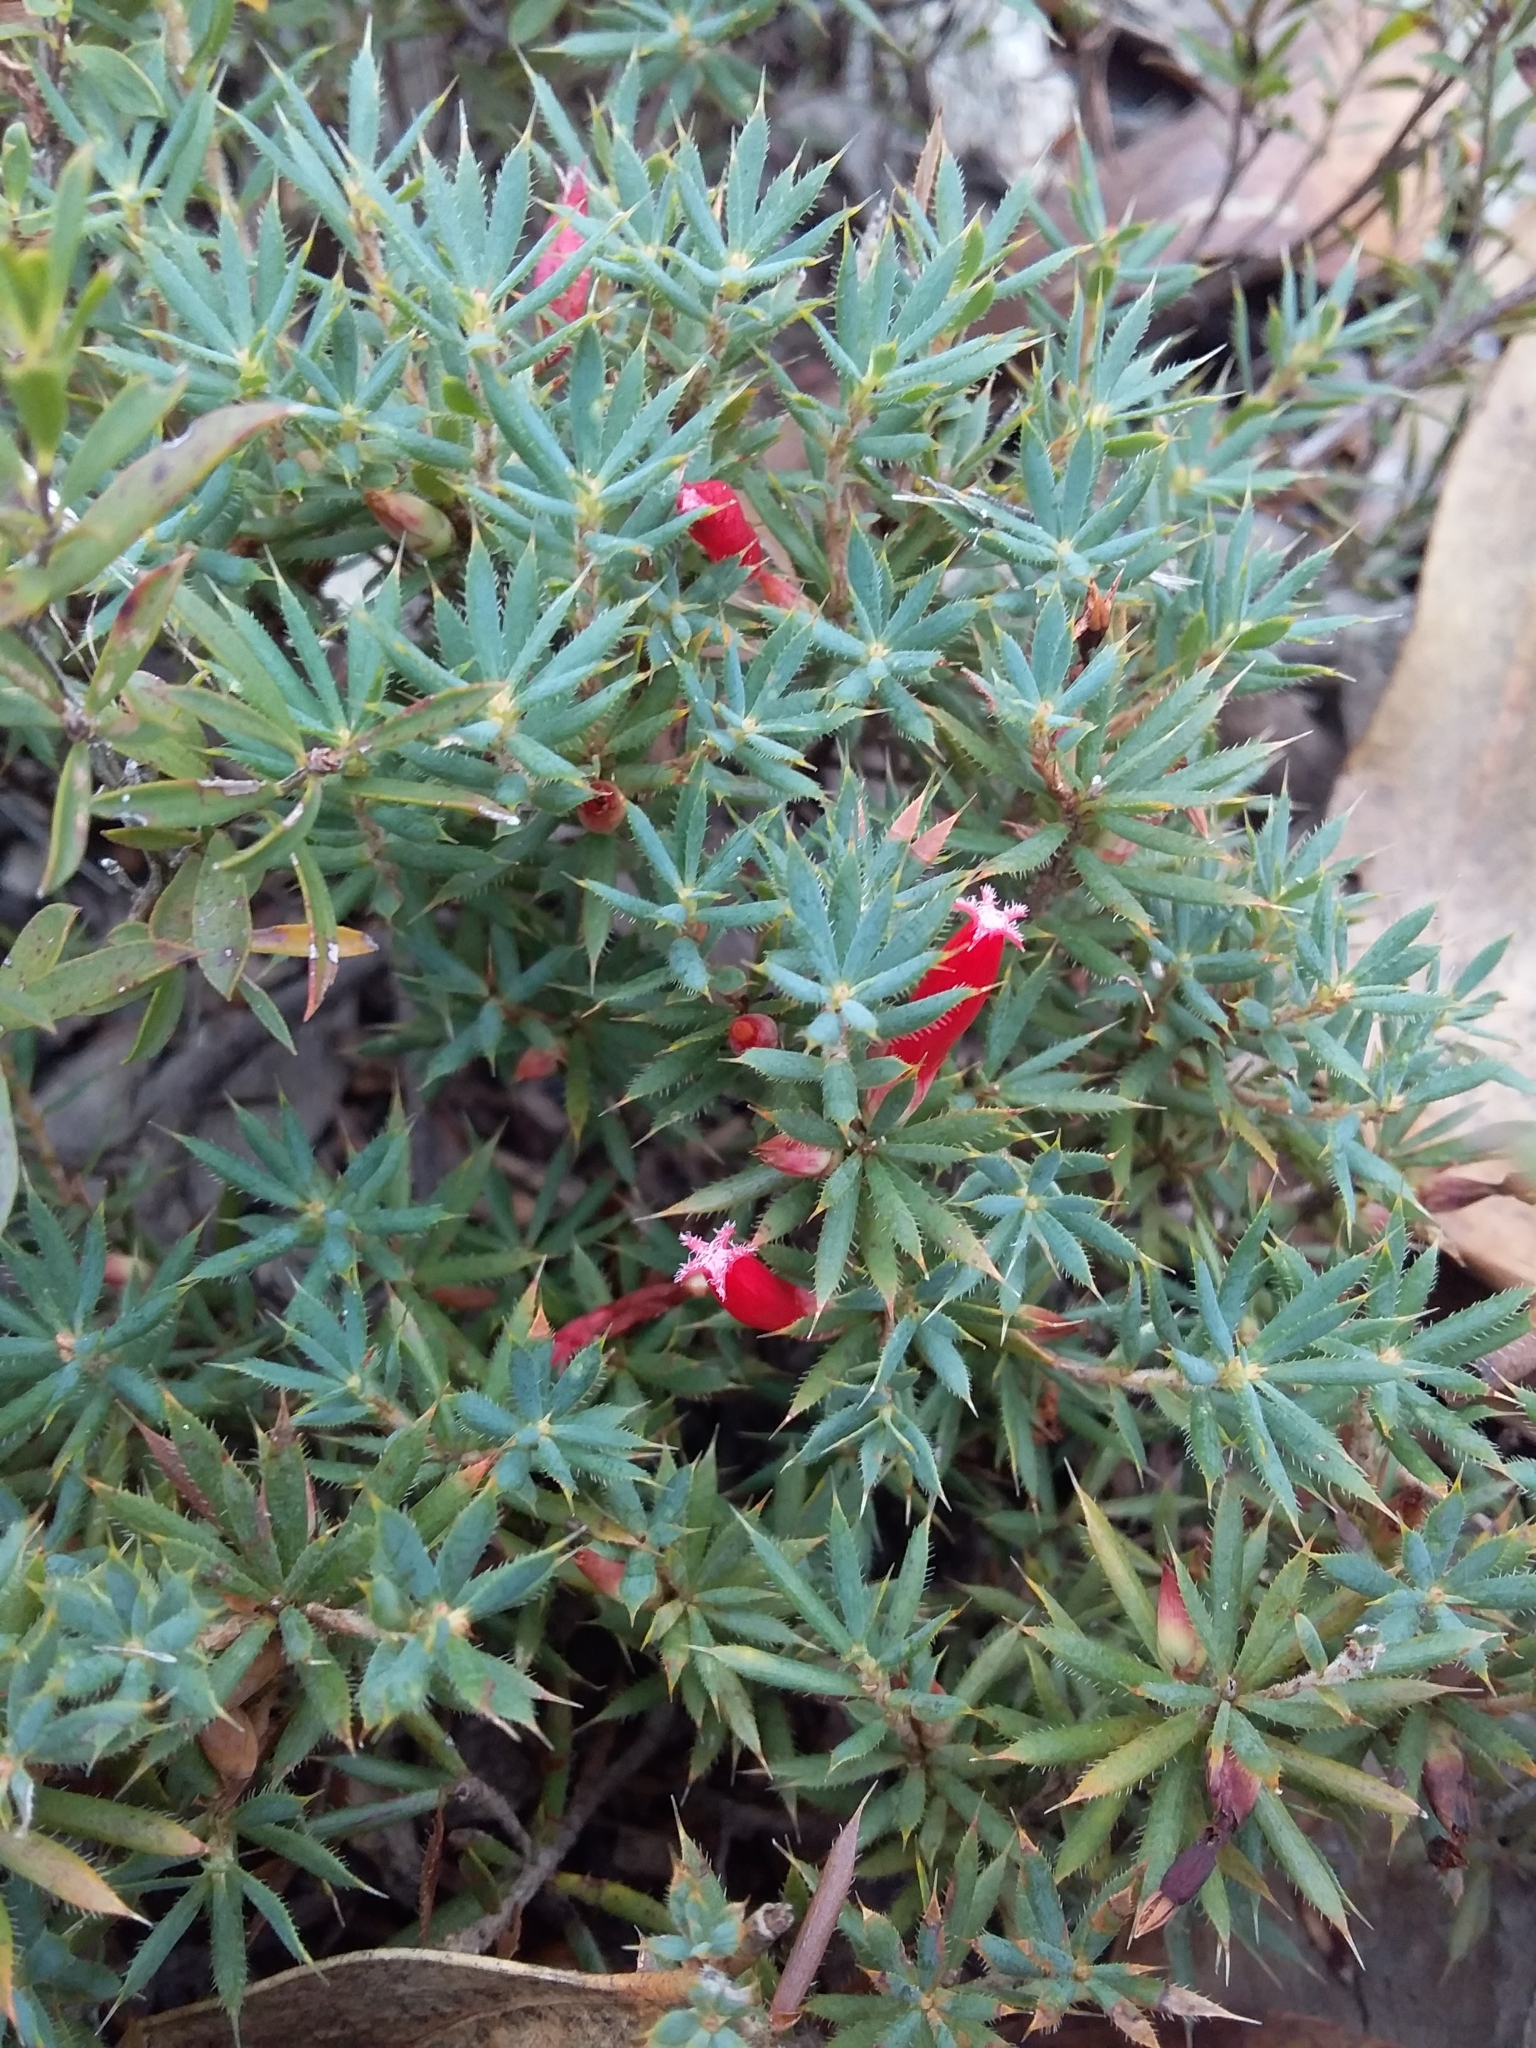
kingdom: Plantae
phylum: Tracheophyta
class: Magnoliopsida
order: Ericales
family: Ericaceae
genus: Styphelia
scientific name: Styphelia humifusa
